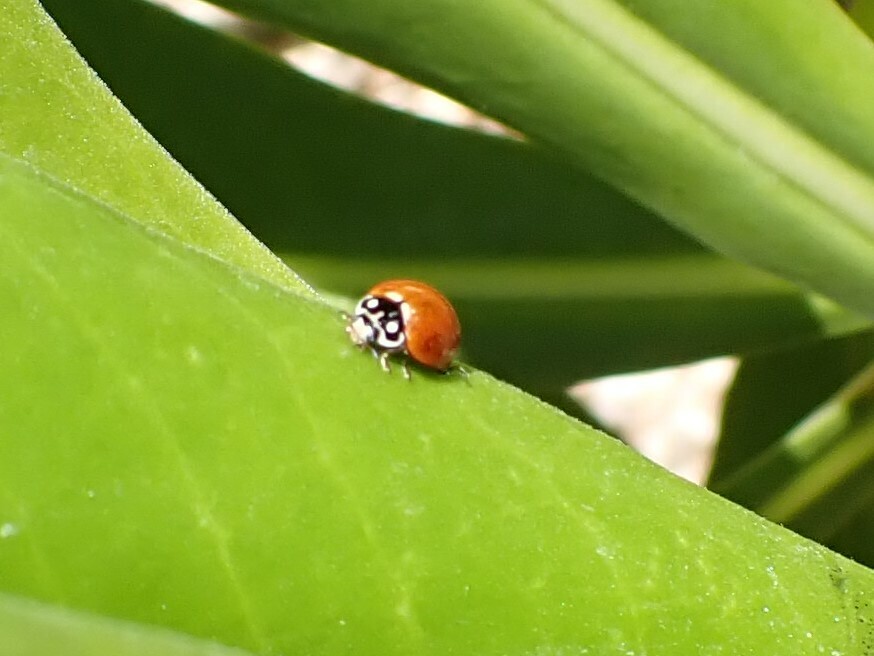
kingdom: Animalia
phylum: Arthropoda
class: Insecta
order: Coleoptera
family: Coccinellidae
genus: Cycloneda
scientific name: Cycloneda sanguinea
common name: Ladybird beetle
